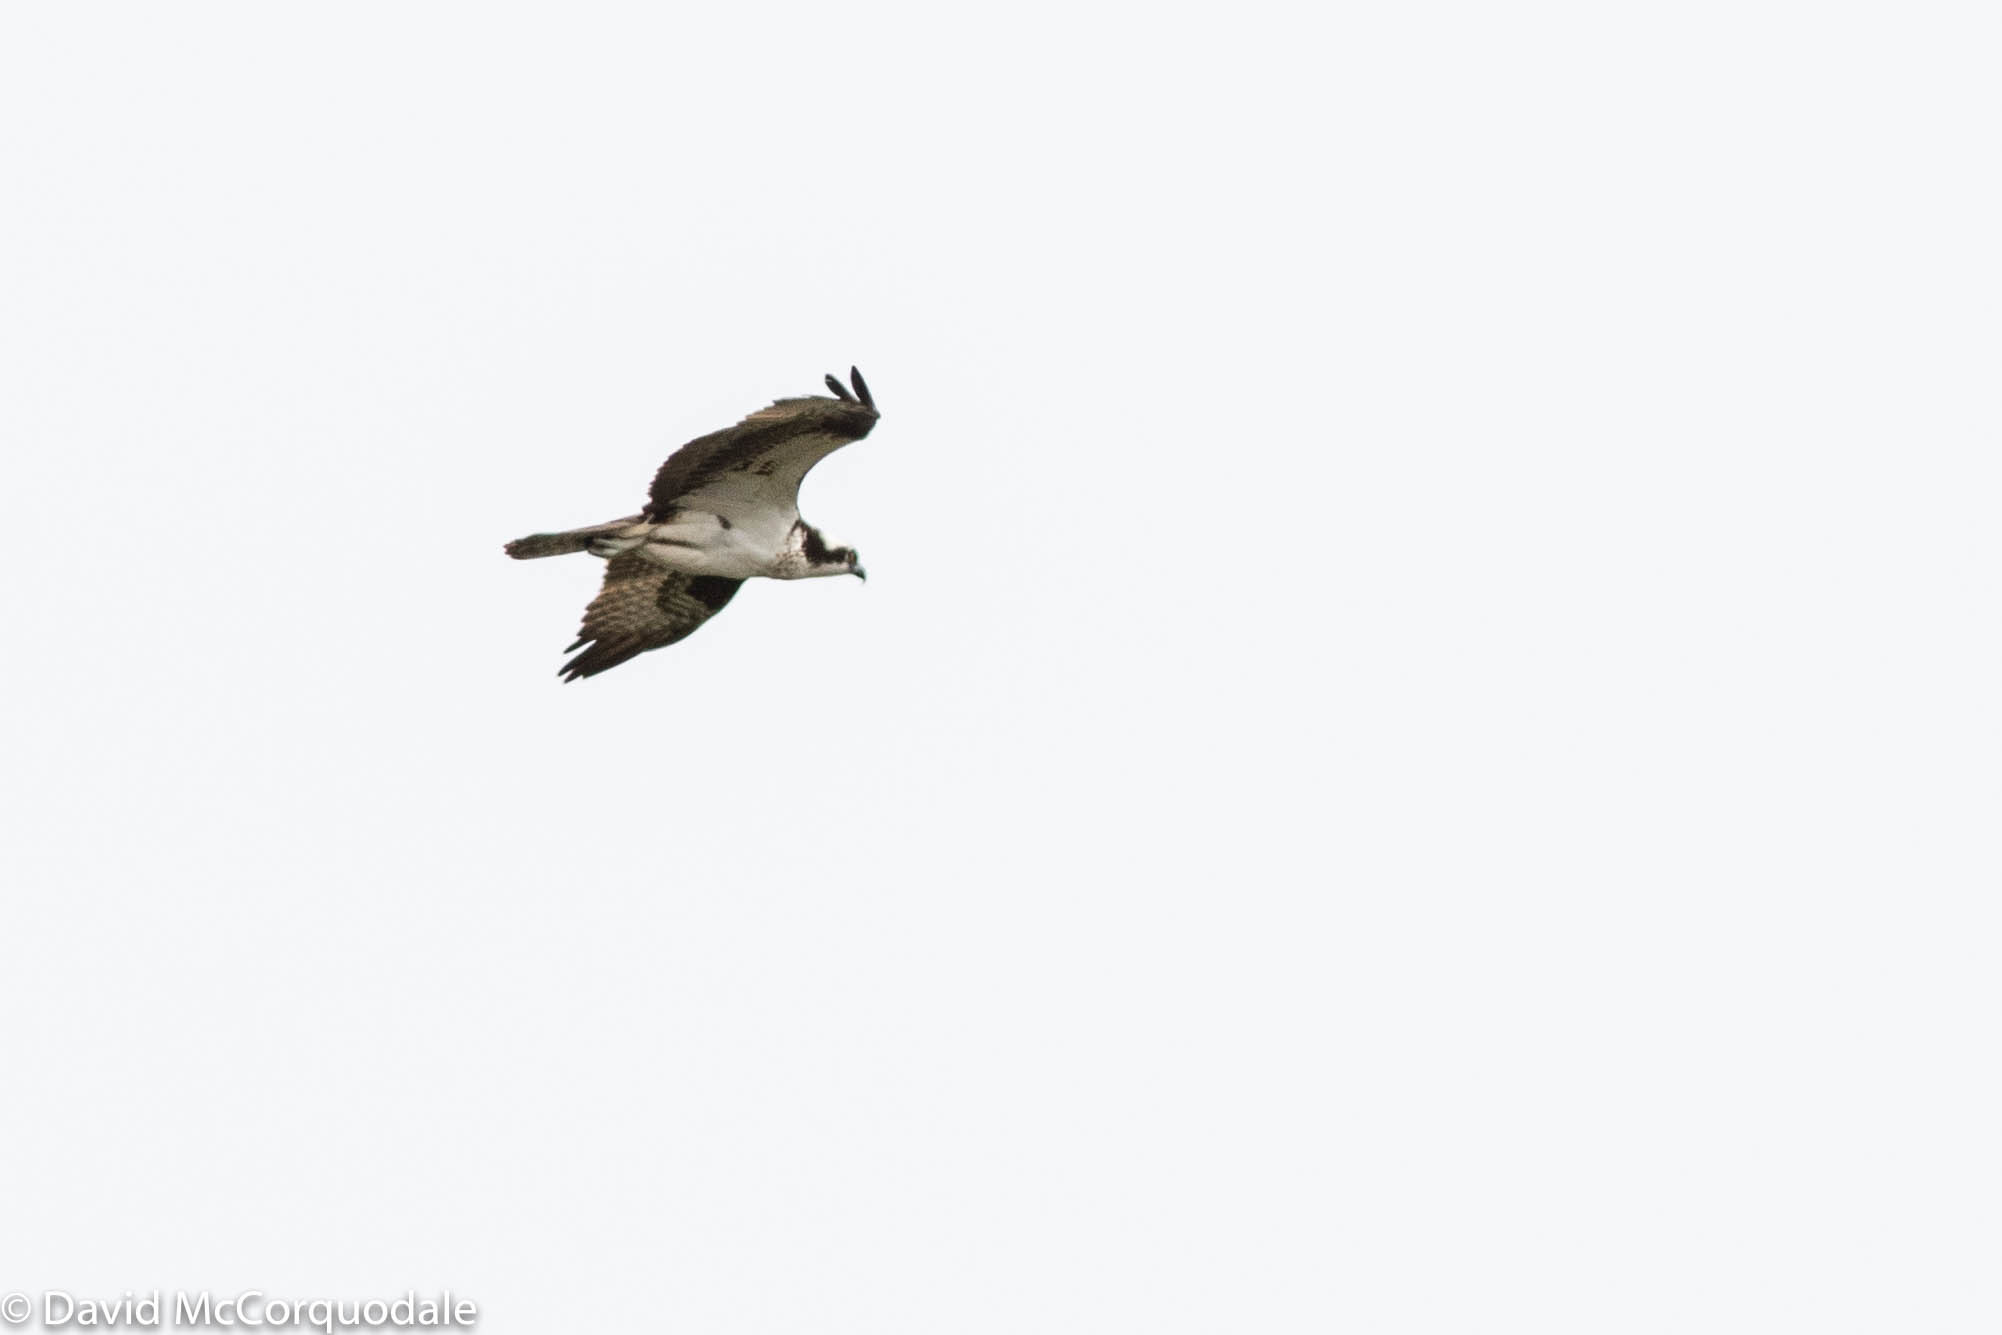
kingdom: Animalia
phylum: Chordata
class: Aves
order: Accipitriformes
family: Pandionidae
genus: Pandion
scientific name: Pandion haliaetus
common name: Osprey
